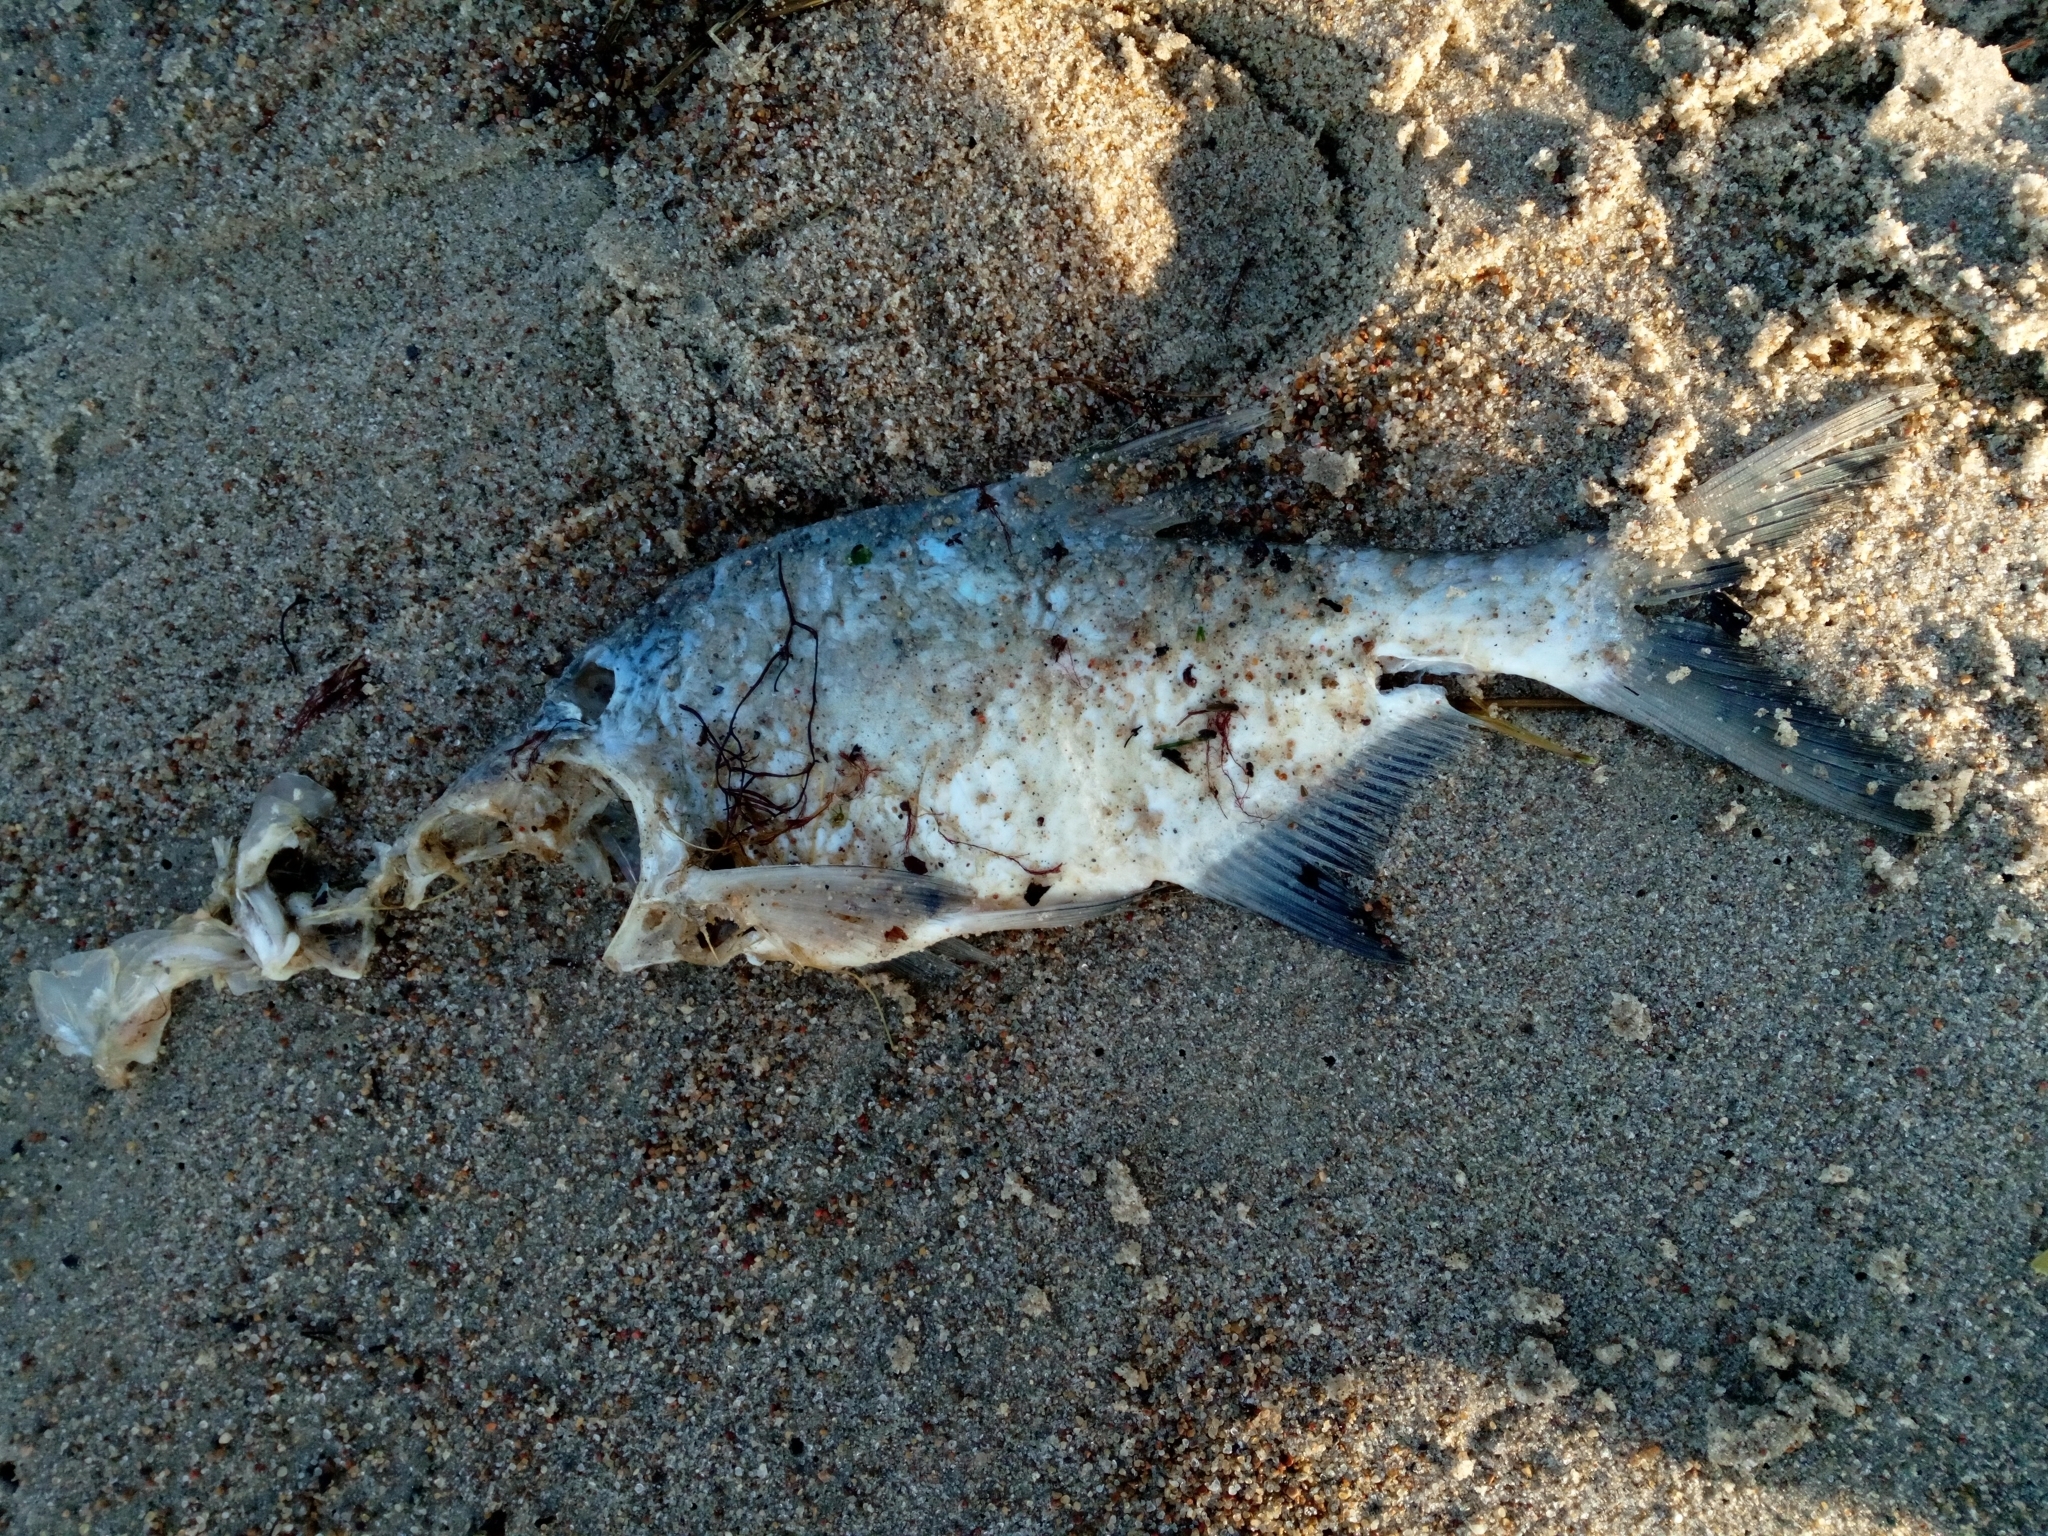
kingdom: Animalia
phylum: Chordata
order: Cypriniformes
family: Cyprinidae
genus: Abramis
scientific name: Abramis brama
